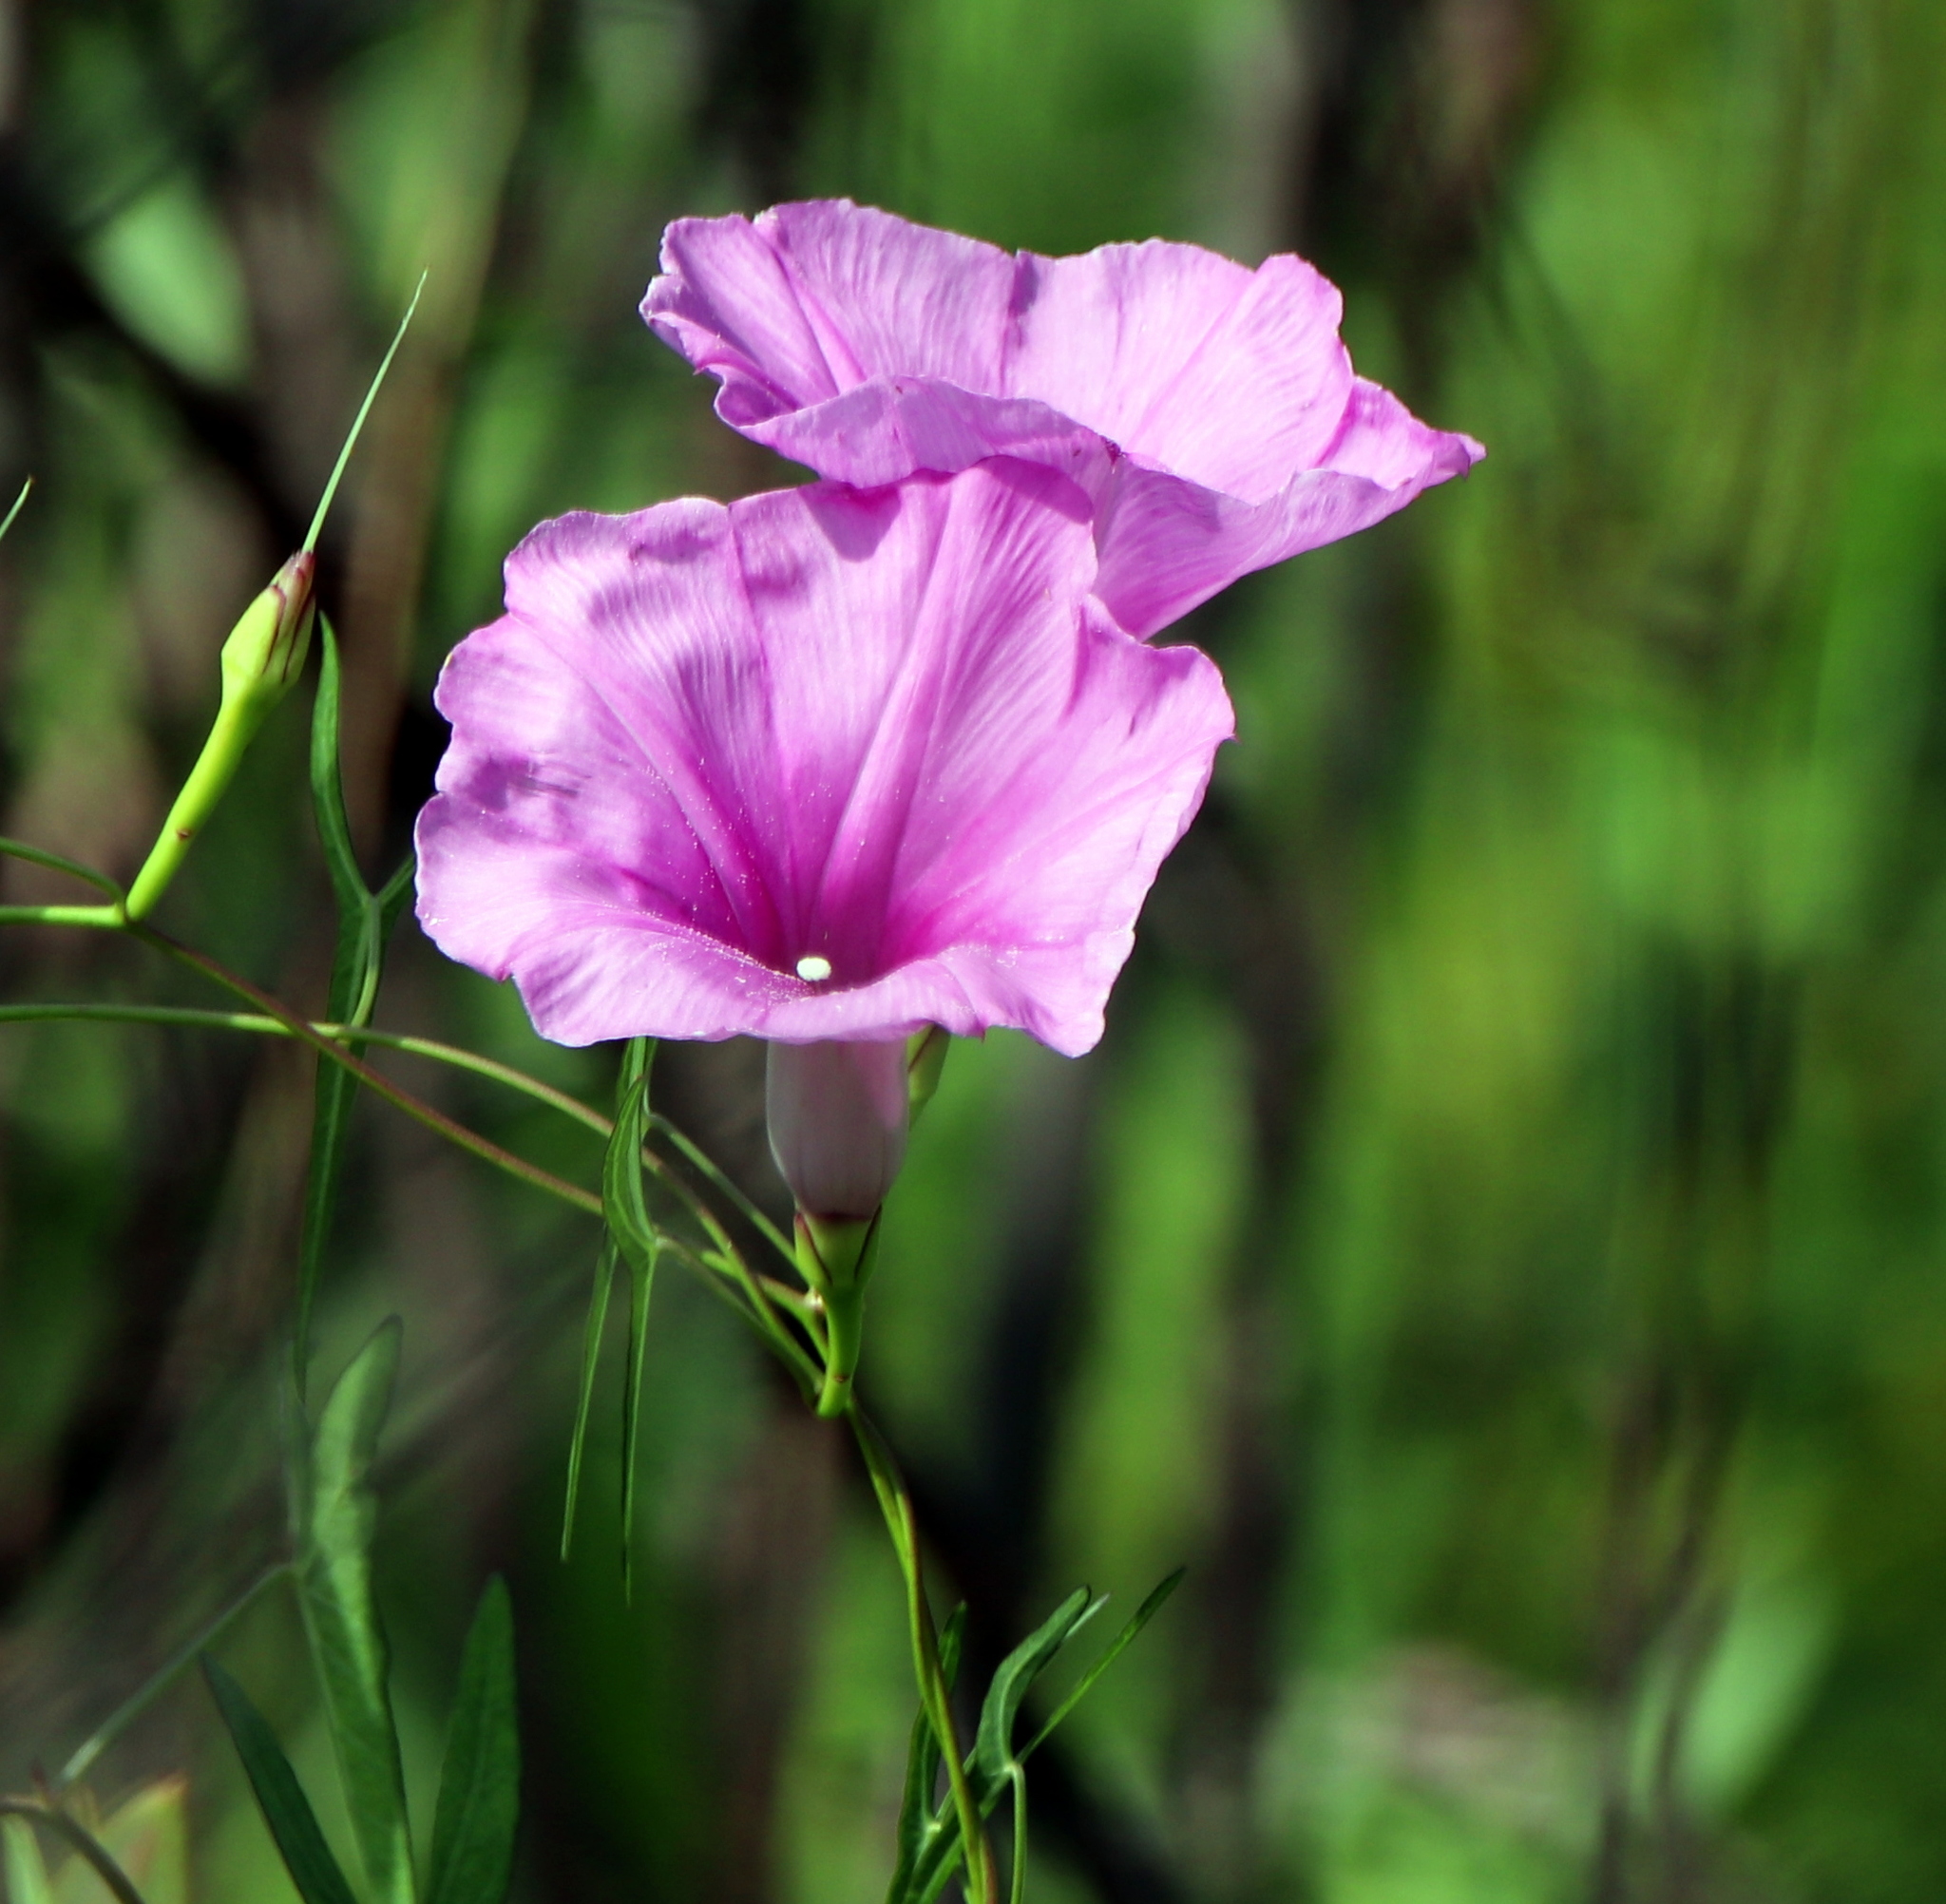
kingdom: Plantae
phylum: Tracheophyta
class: Magnoliopsida
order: Solanales
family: Convolvulaceae
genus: Ipomoea
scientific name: Ipomoea sagittata
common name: Saltmarsh morning glory
